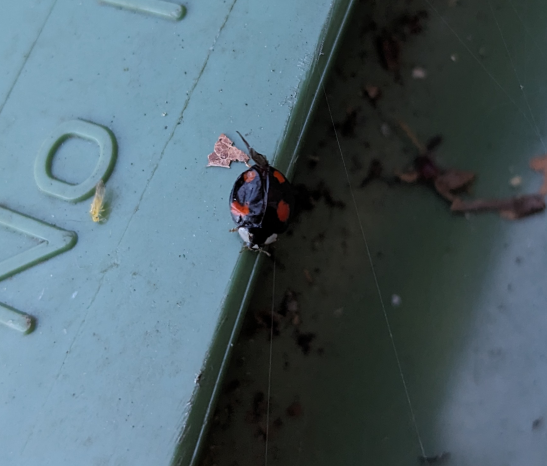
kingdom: Animalia
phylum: Arthropoda
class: Insecta
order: Coleoptera
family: Coccinellidae
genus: Harmonia
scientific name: Harmonia axyridis
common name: Harlequin ladybird
